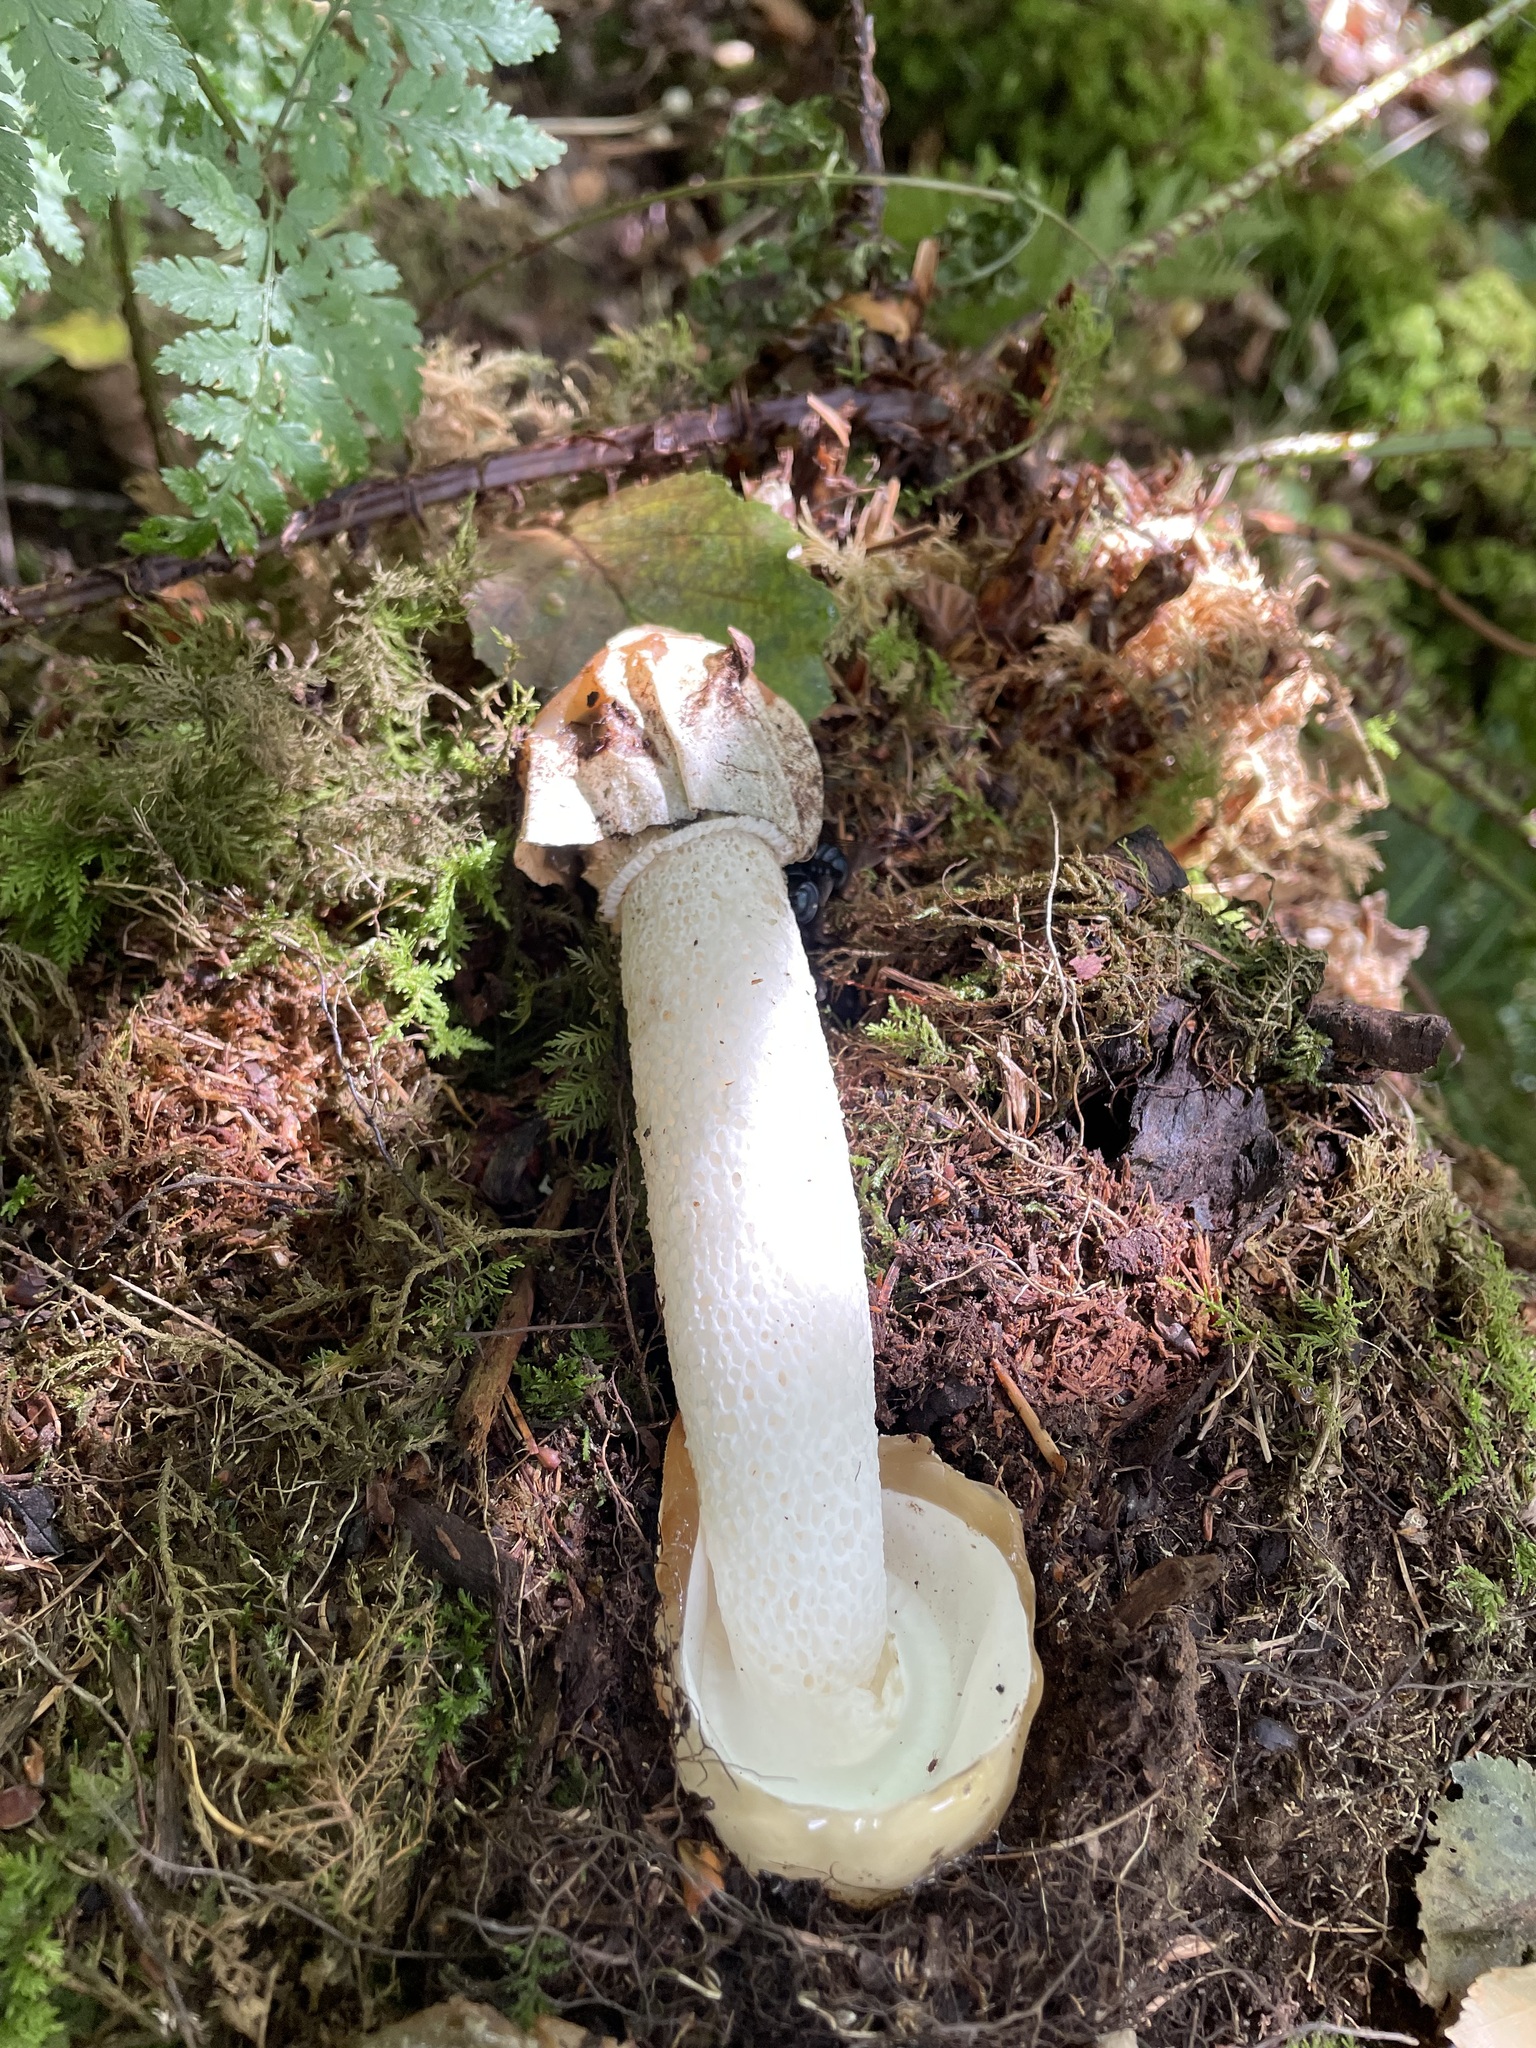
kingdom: Fungi
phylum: Basidiomycota
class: Agaricomycetes
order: Phallales
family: Phallaceae
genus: Phallus
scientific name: Phallus impudicus
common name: Common stinkhorn
